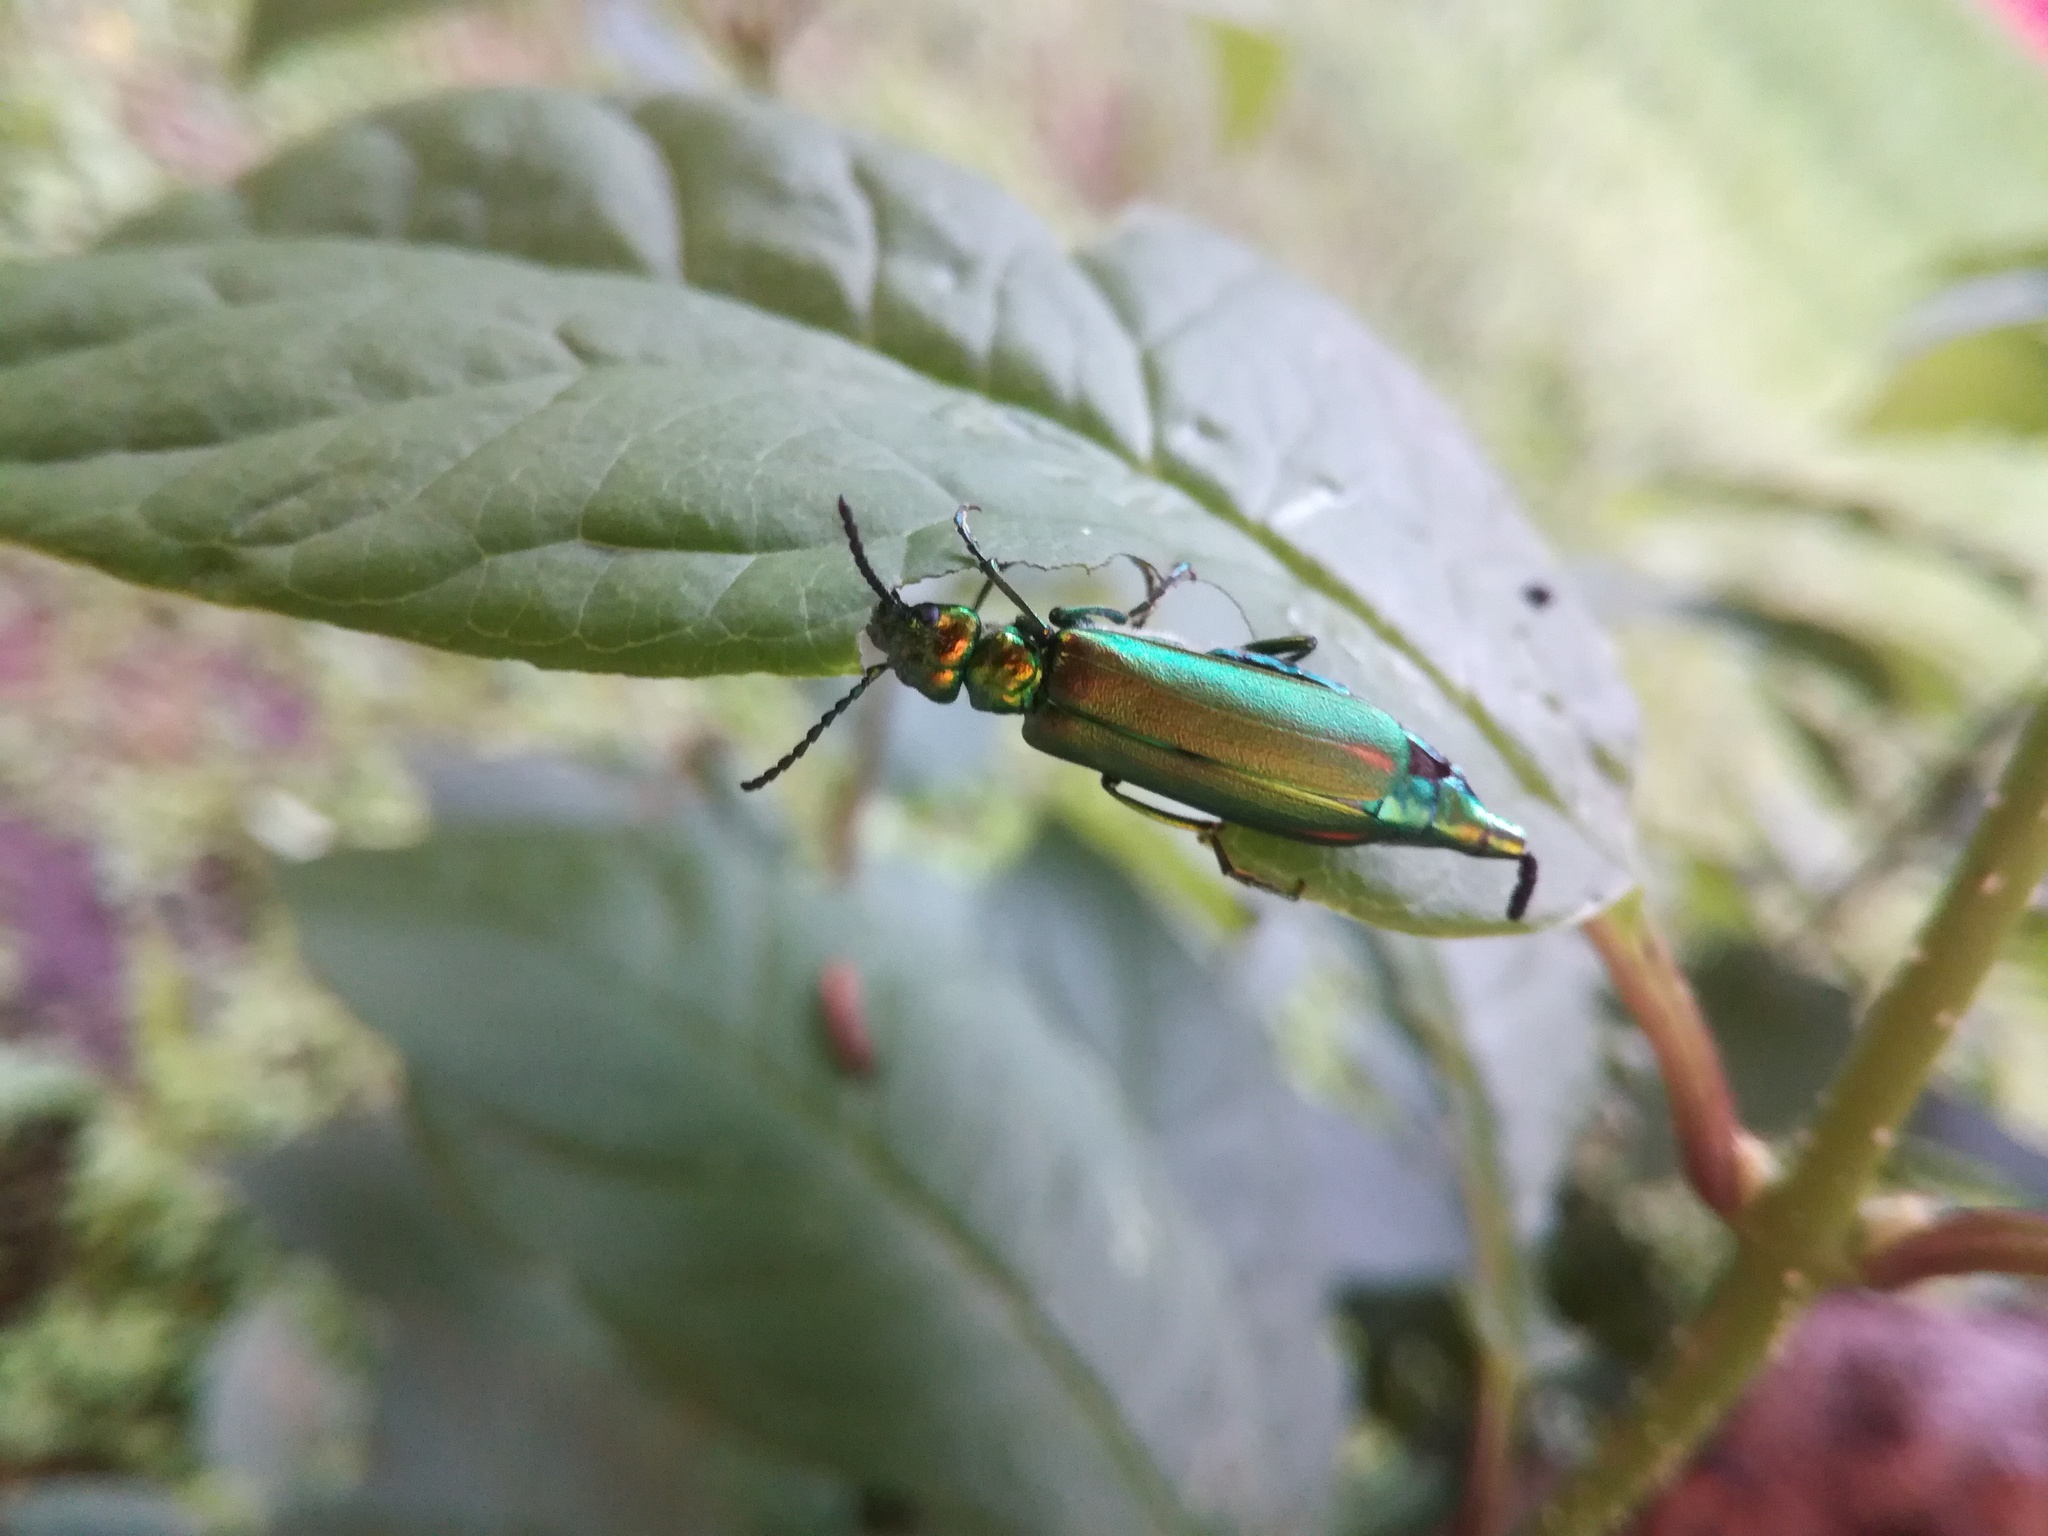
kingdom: Animalia
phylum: Arthropoda
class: Insecta
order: Coleoptera
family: Meloidae
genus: Lytta
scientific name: Lytta vesicatoria
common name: Spanish fly
